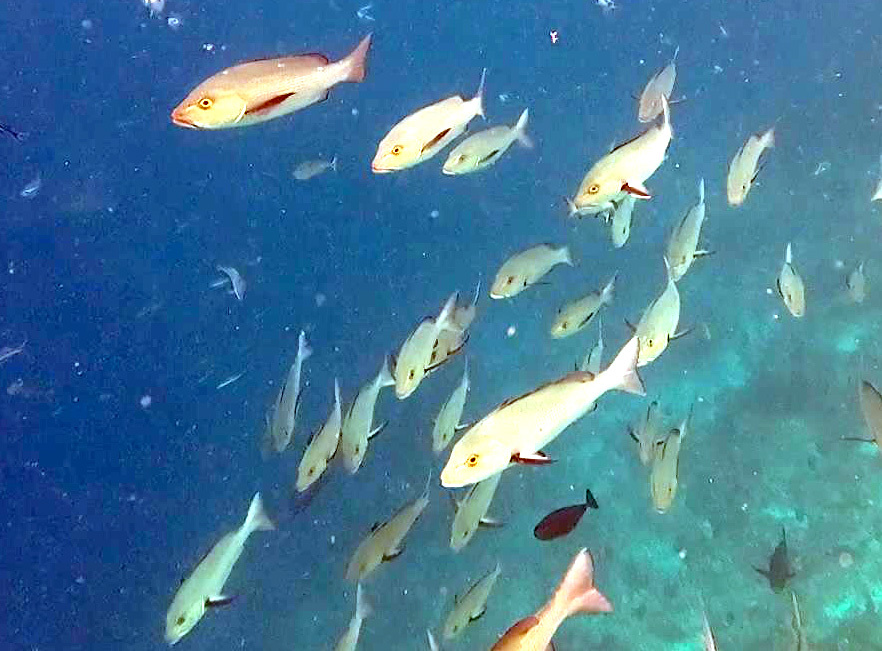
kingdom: Animalia
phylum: Chordata
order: Perciformes
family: Lutjanidae
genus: Lutjanus
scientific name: Lutjanus bohar
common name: Red bass
